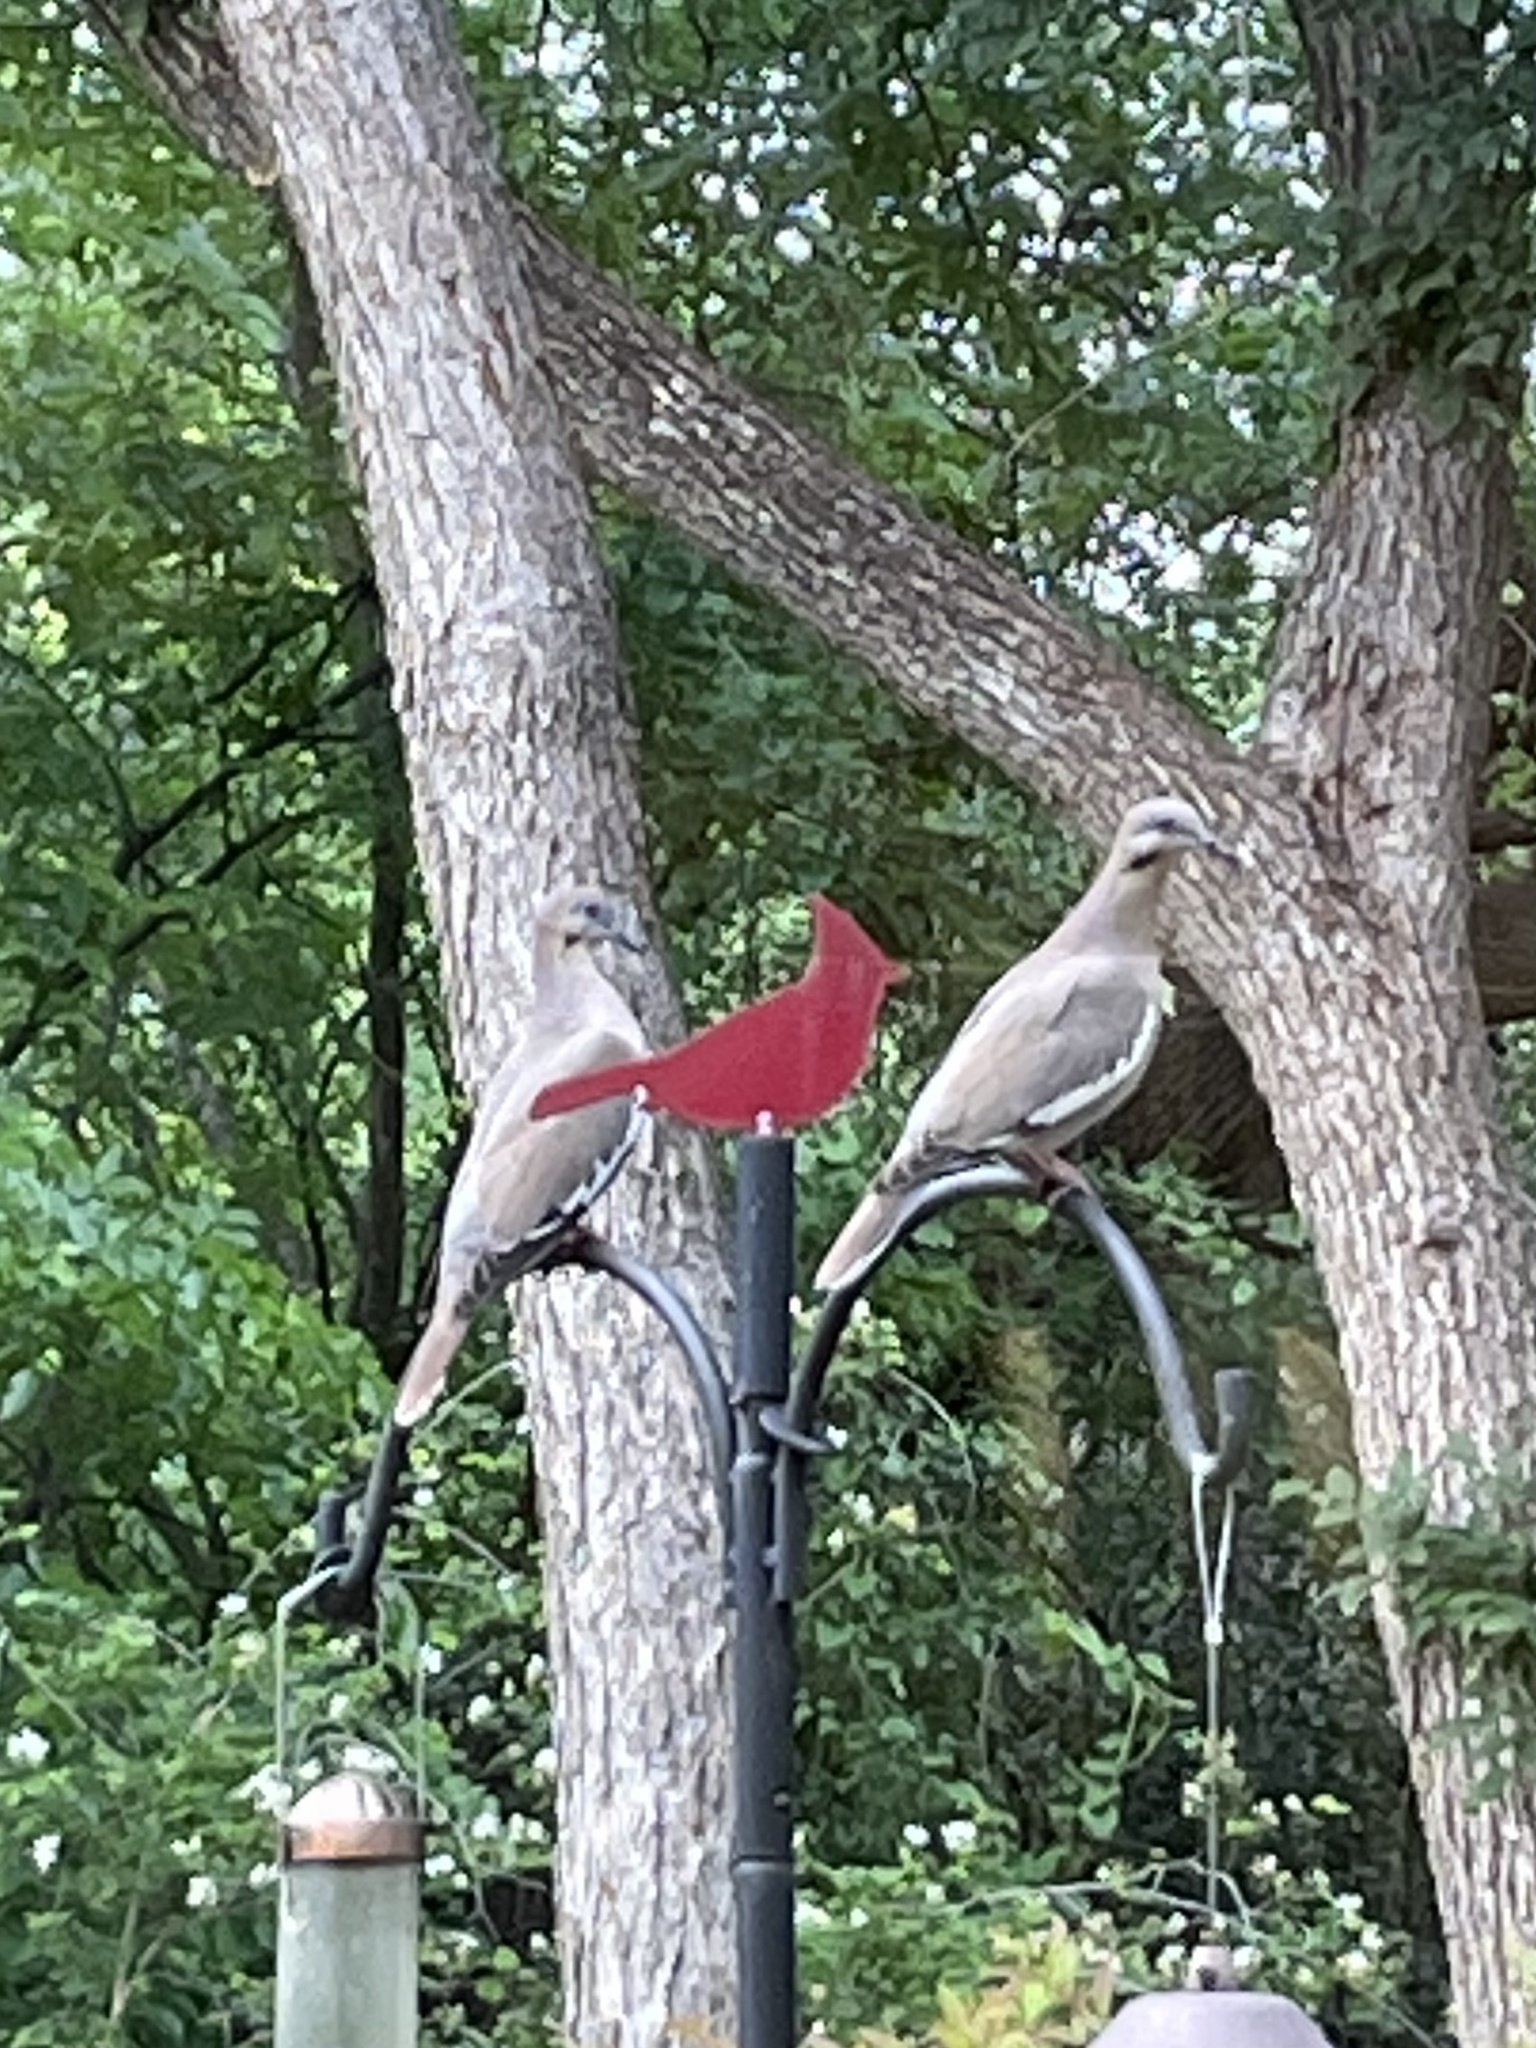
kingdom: Animalia
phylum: Chordata
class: Aves
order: Columbiformes
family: Columbidae
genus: Zenaida
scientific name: Zenaida asiatica
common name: White-winged dove
